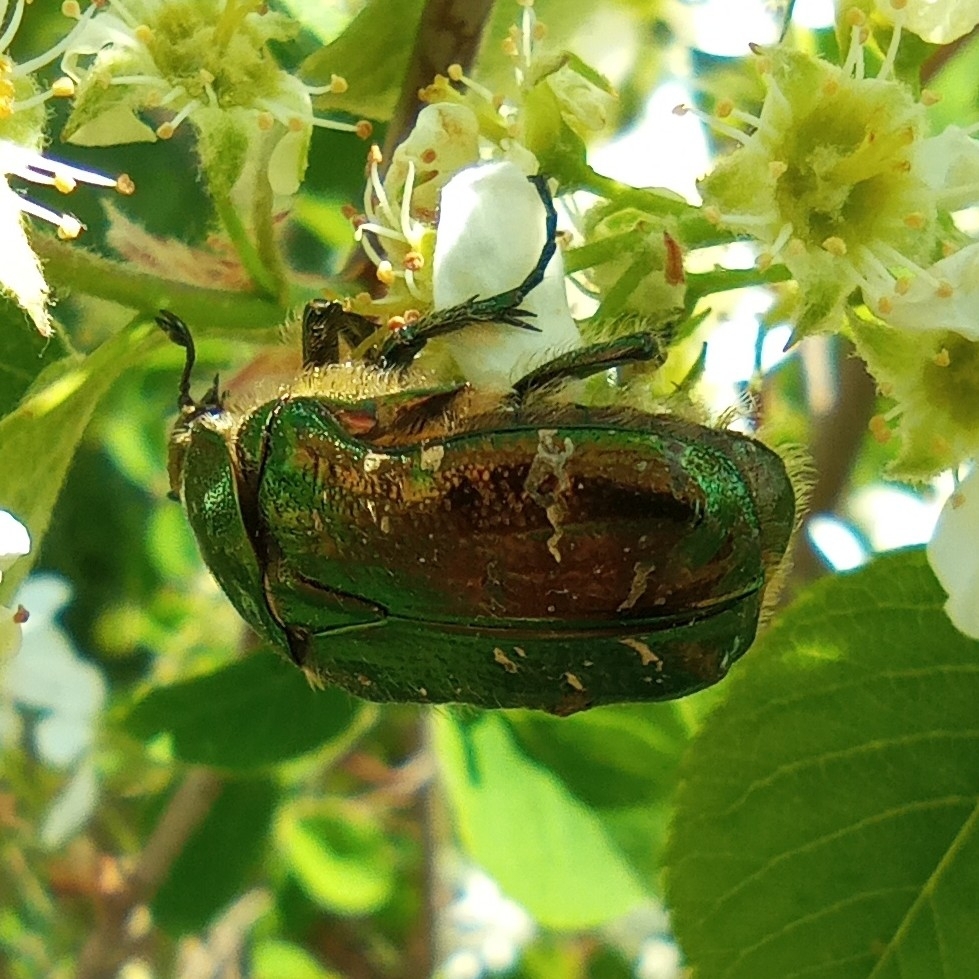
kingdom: Animalia
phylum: Arthropoda
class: Insecta
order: Coleoptera
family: Scarabaeidae
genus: Cetonia
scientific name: Cetonia aurata
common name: Rose chafer
